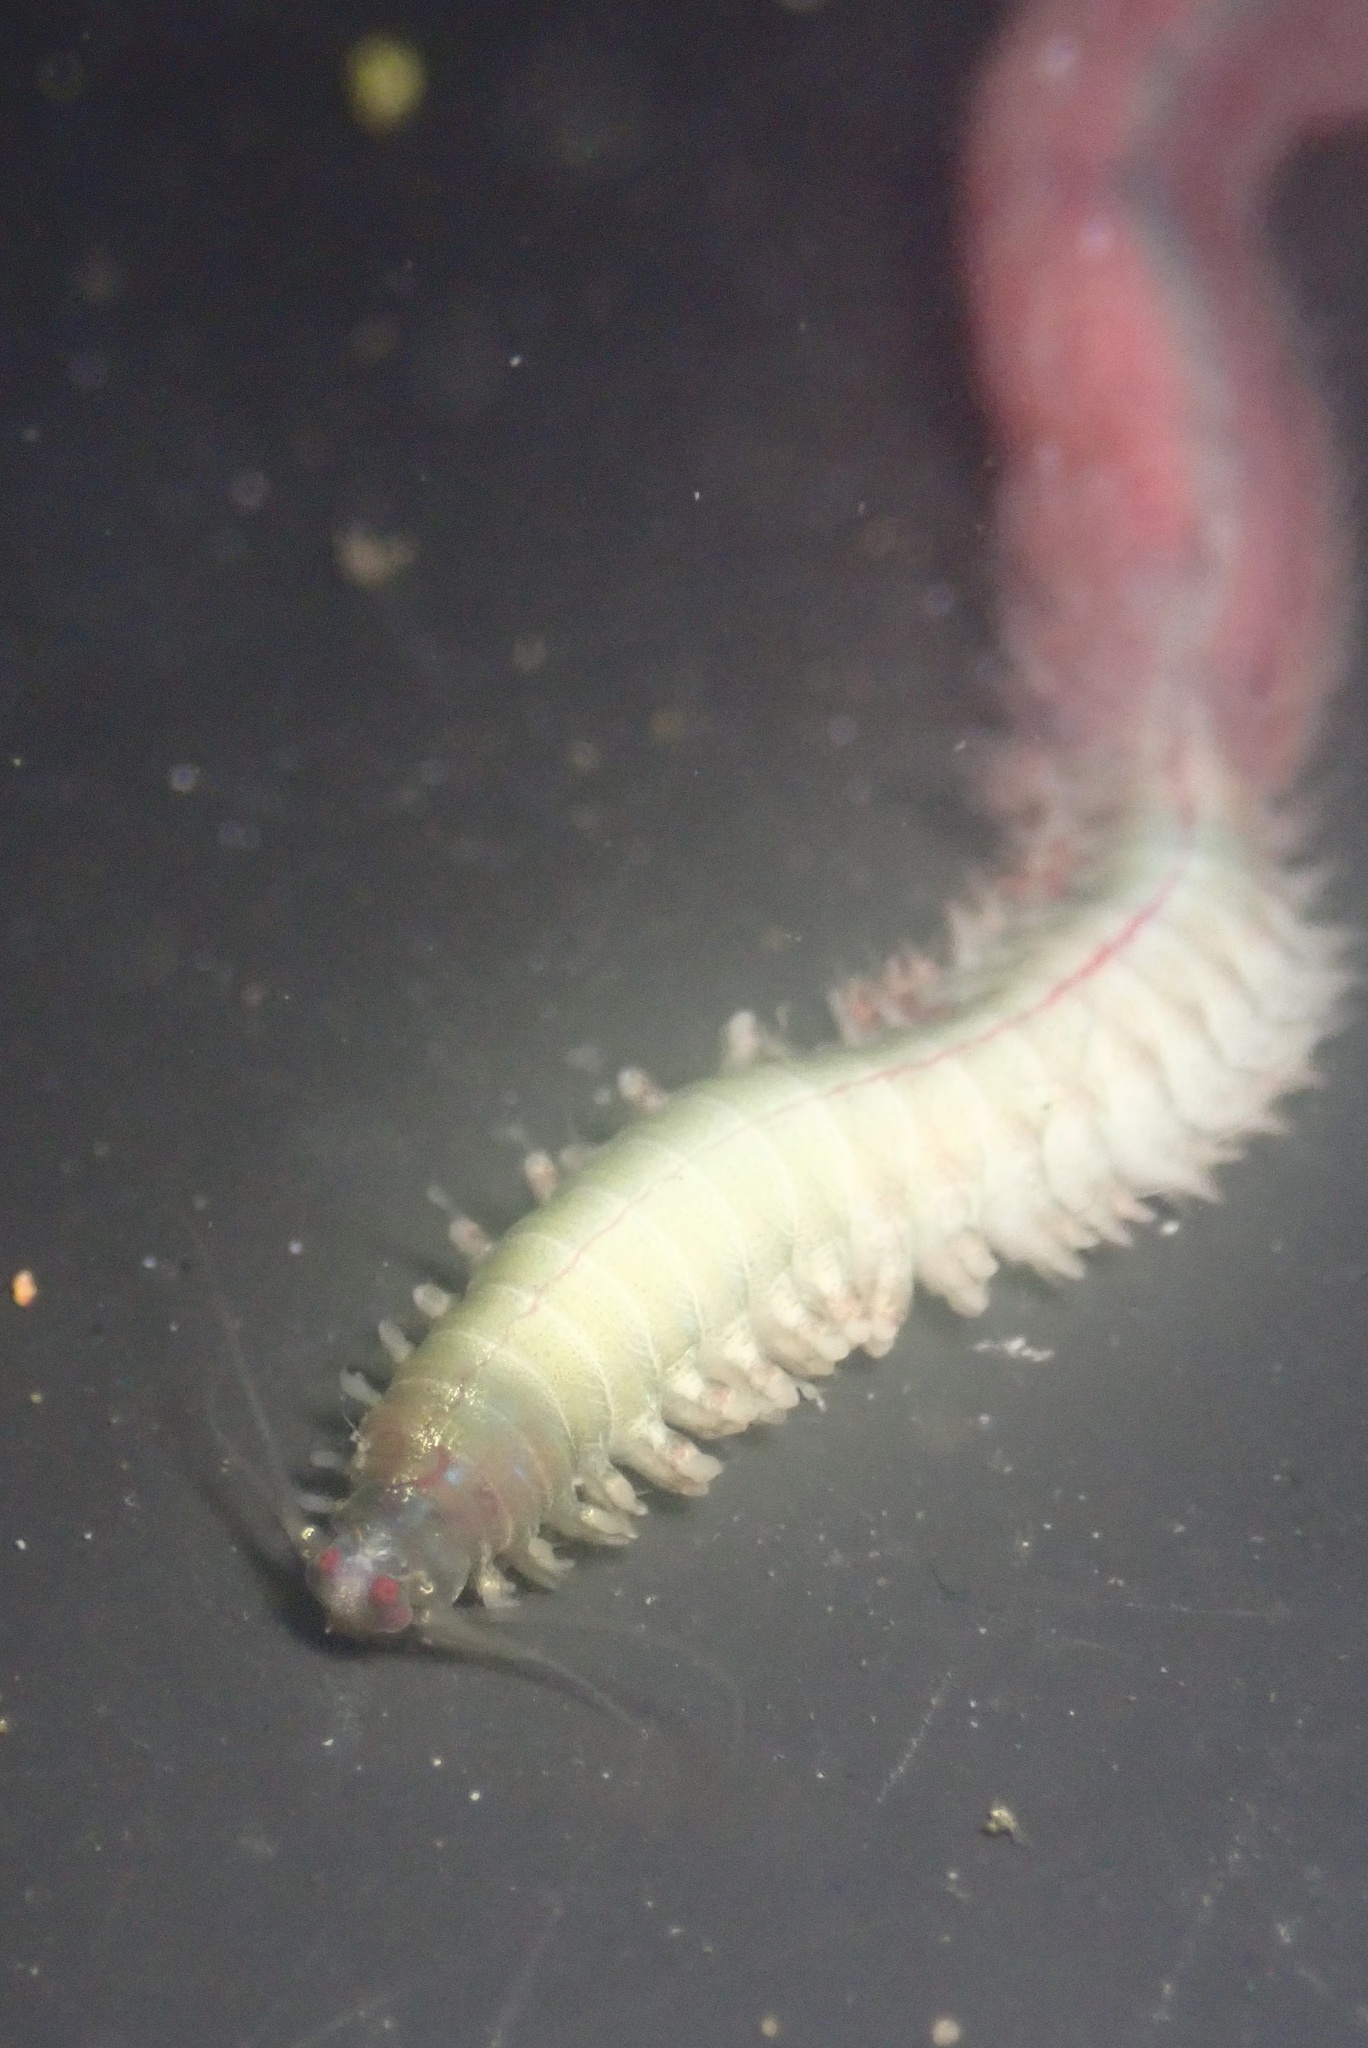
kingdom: Animalia
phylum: Annelida
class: Polychaeta
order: Phyllodocida
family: Nereididae
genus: Platynereis
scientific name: Platynereis bicanaliculata
